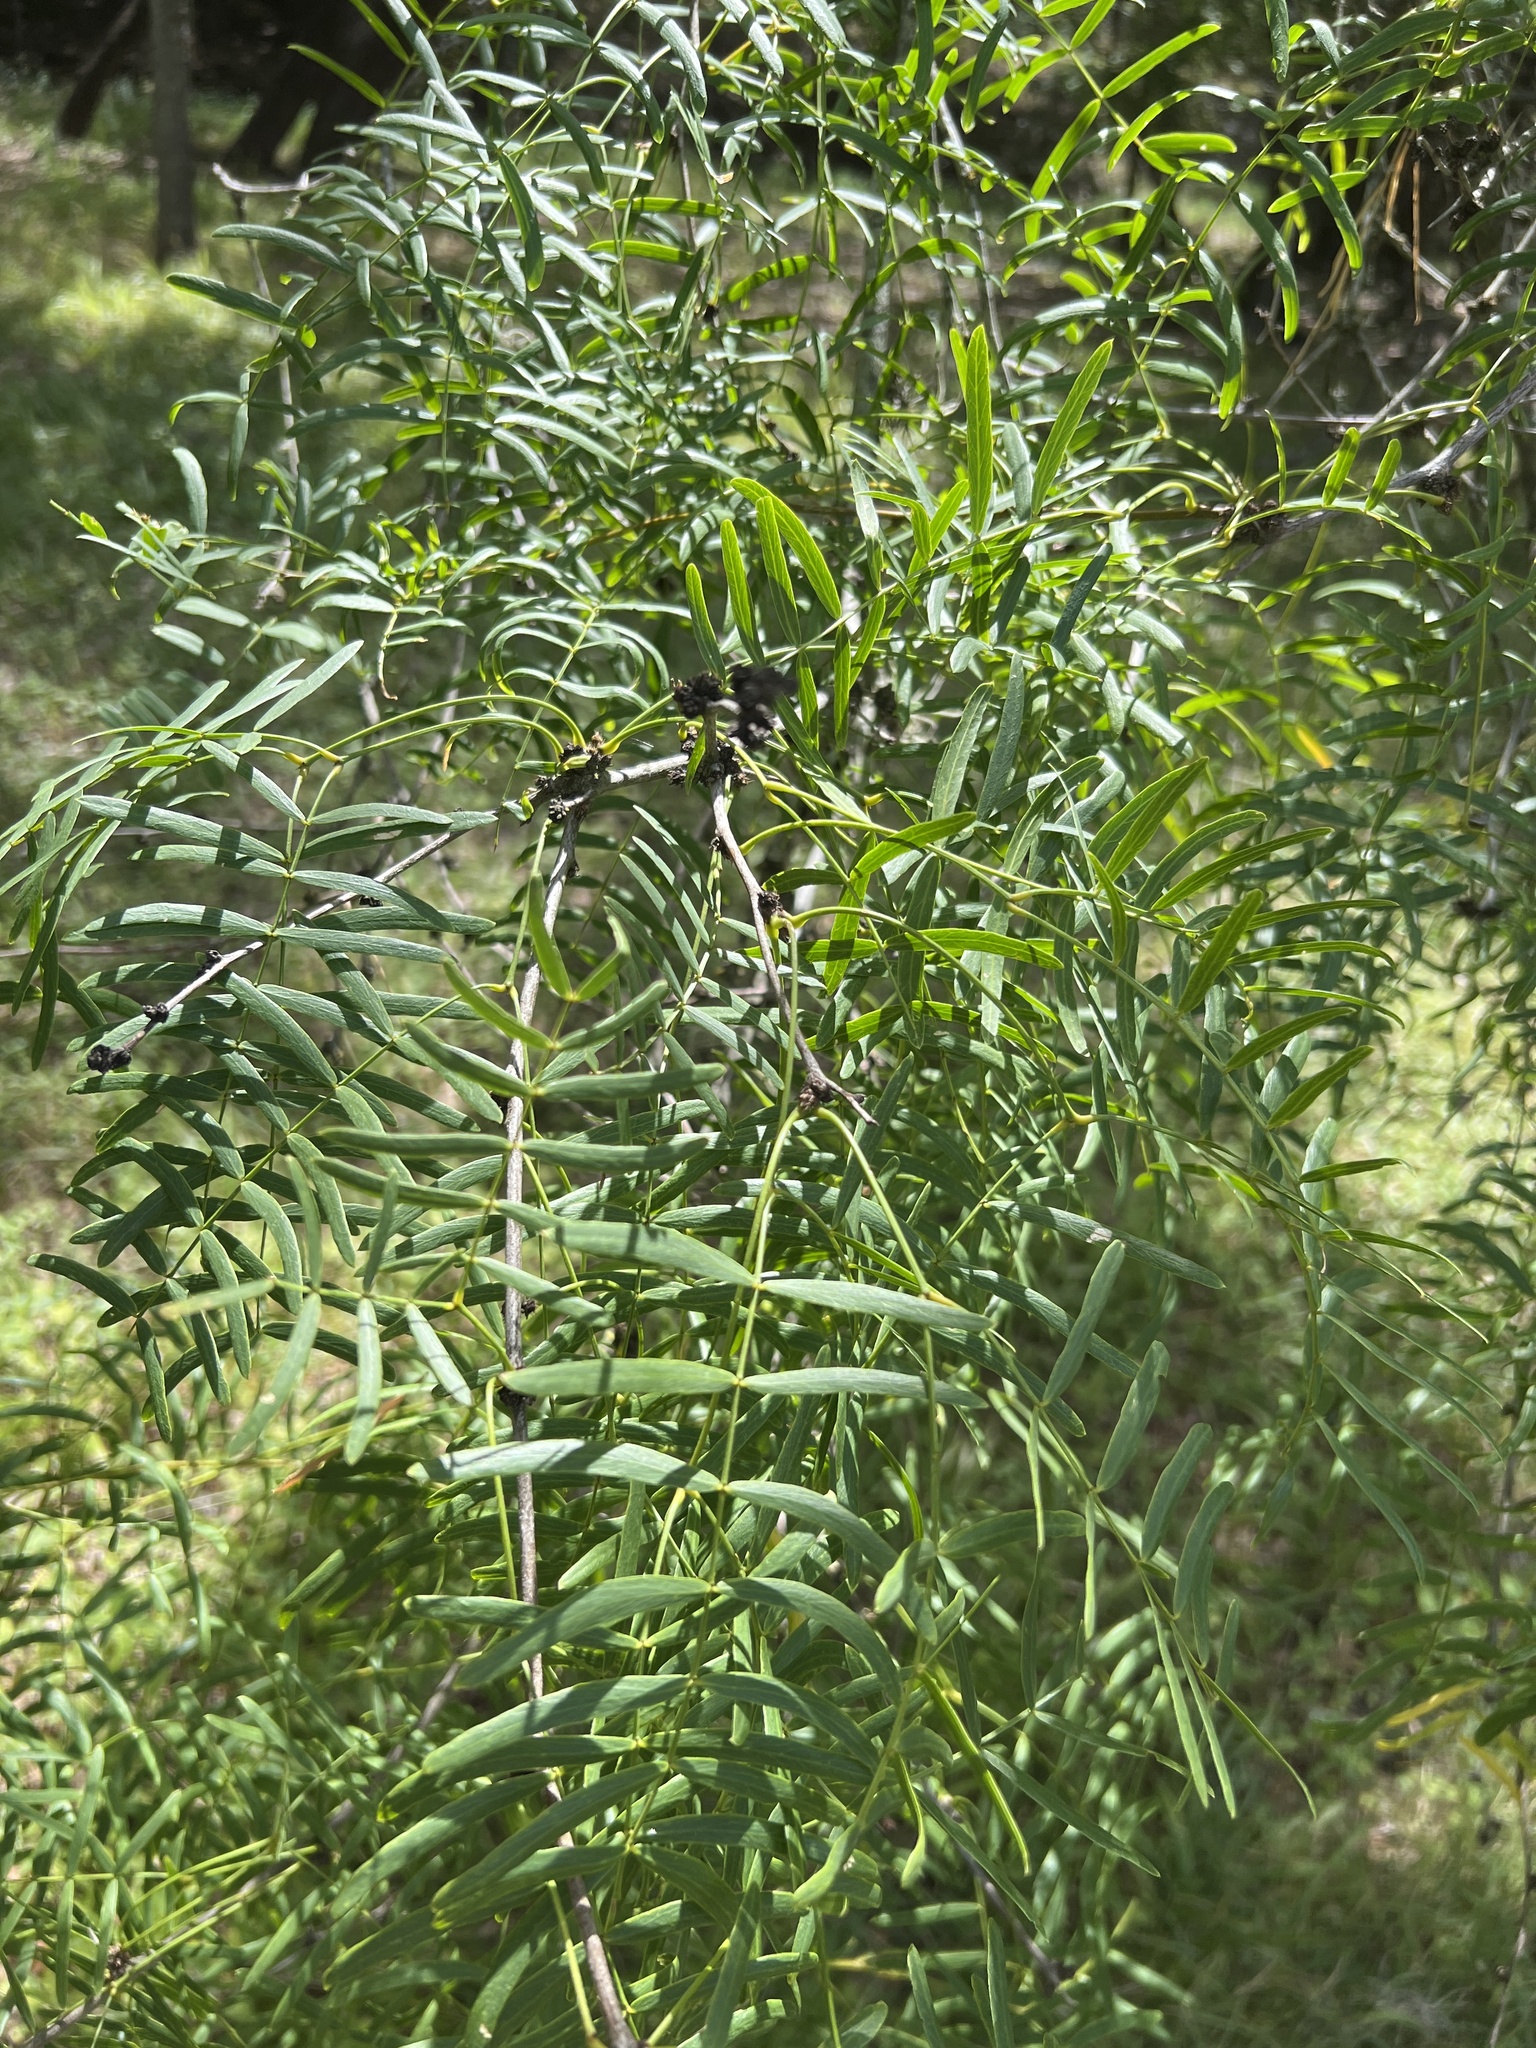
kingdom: Plantae
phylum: Tracheophyta
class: Magnoliopsida
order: Fabales
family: Fabaceae
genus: Prosopis
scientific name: Prosopis glandulosa
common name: Honey mesquite
